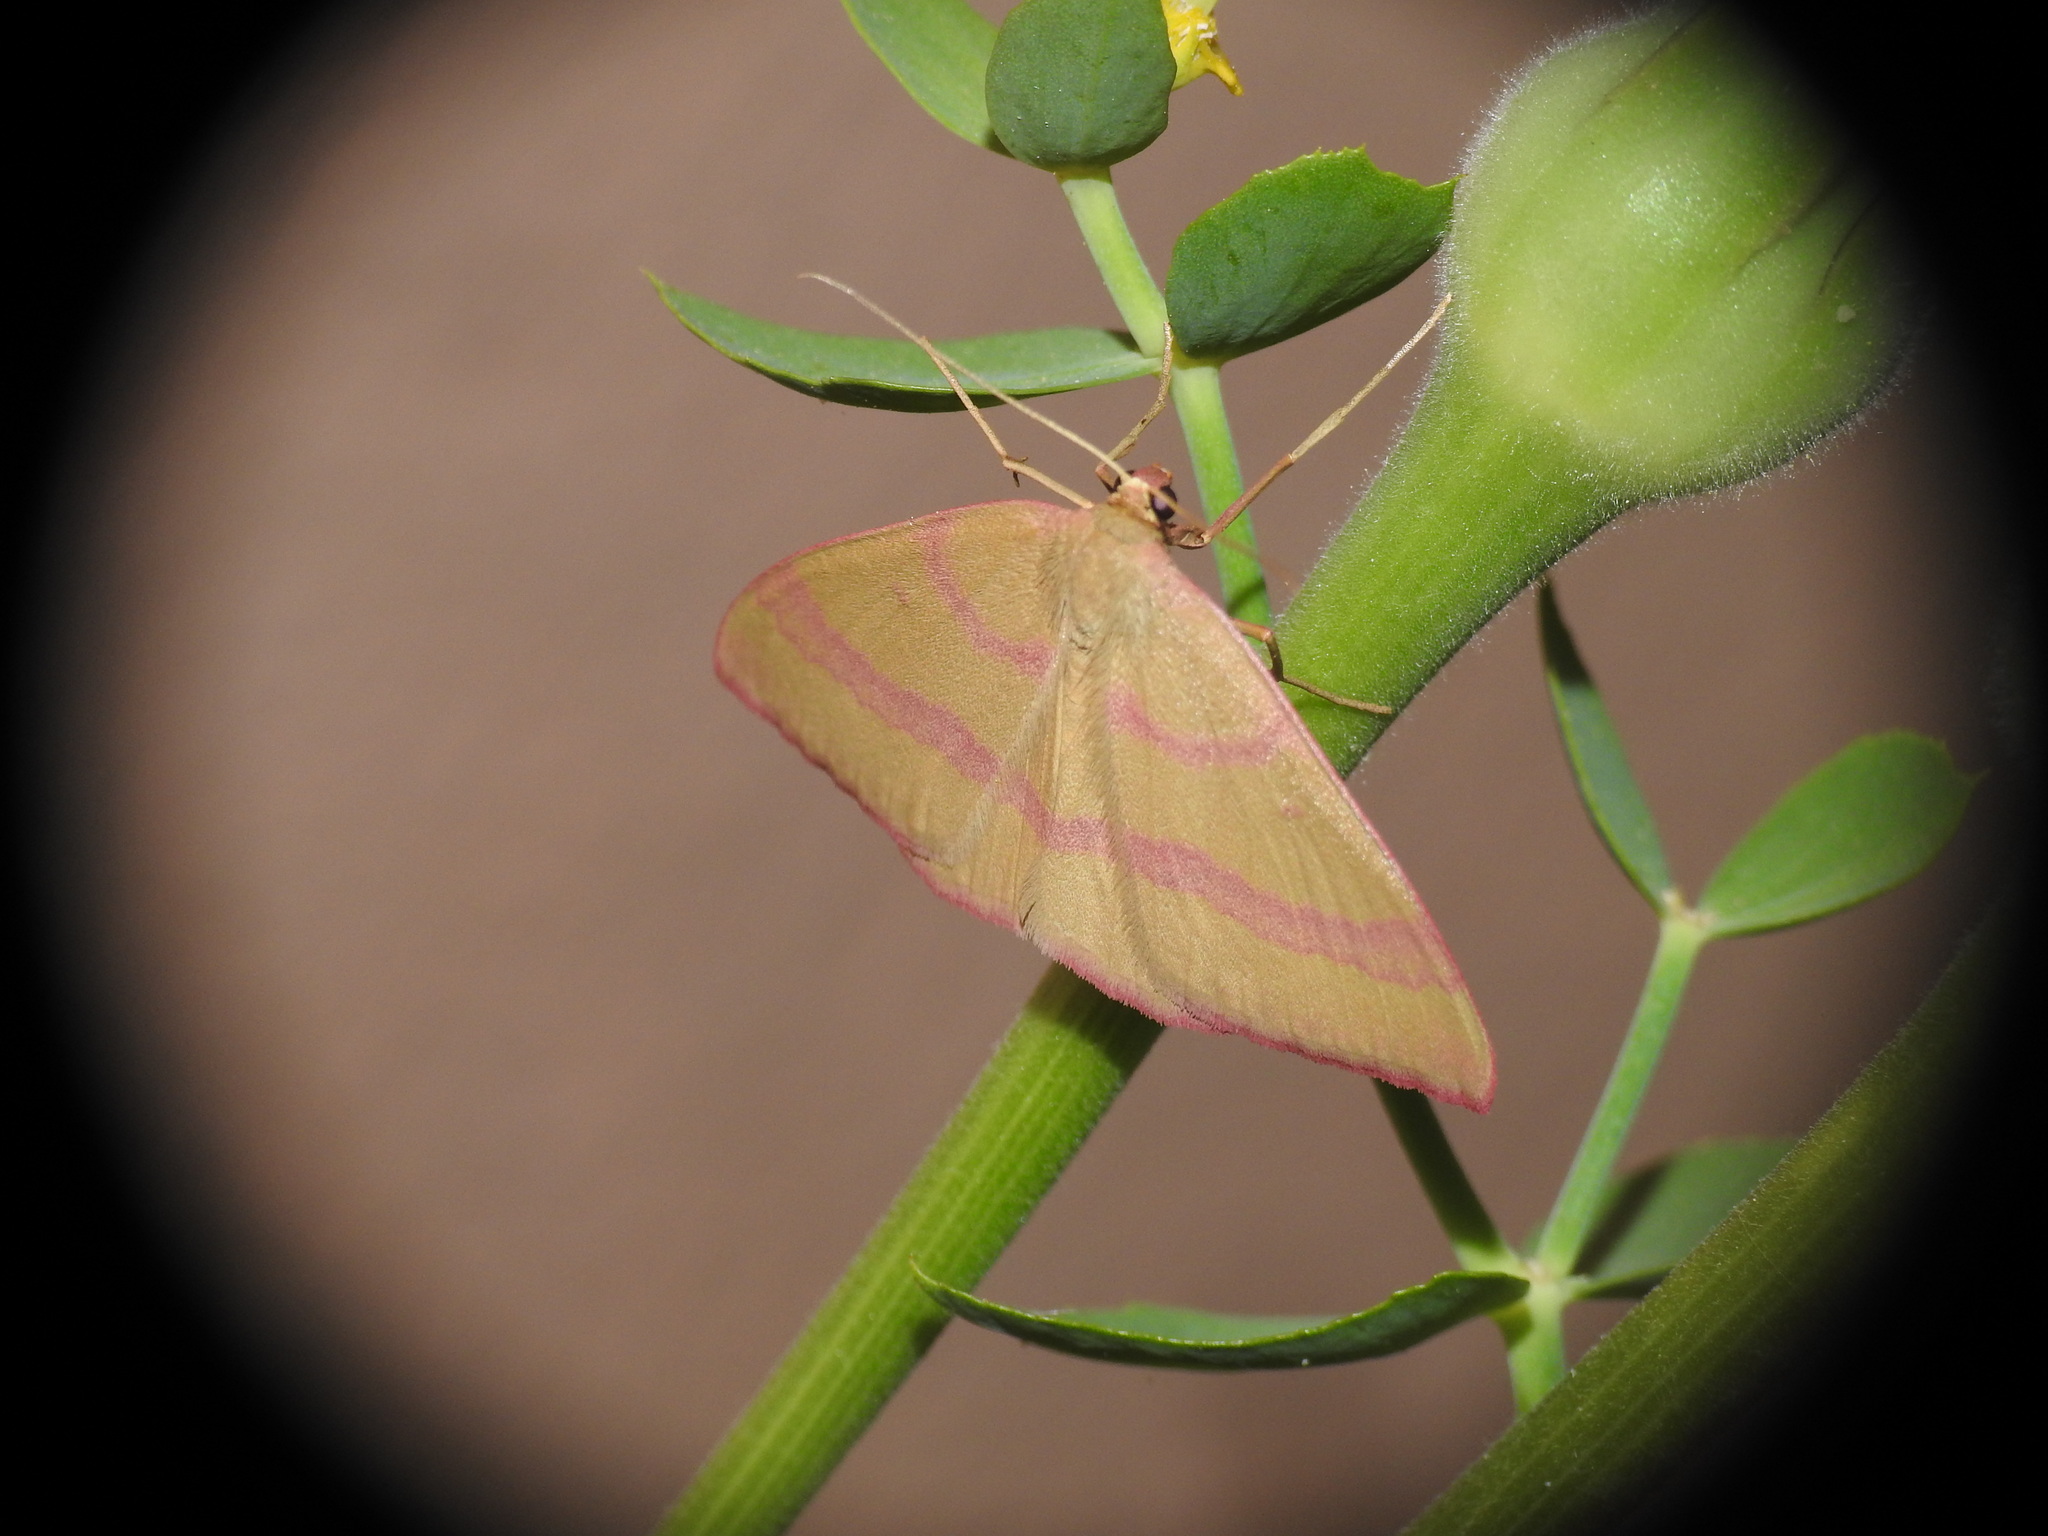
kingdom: Animalia
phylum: Arthropoda
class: Insecta
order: Lepidoptera
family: Geometridae
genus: Rhodostrophia
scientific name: Rhodostrophia calabra
